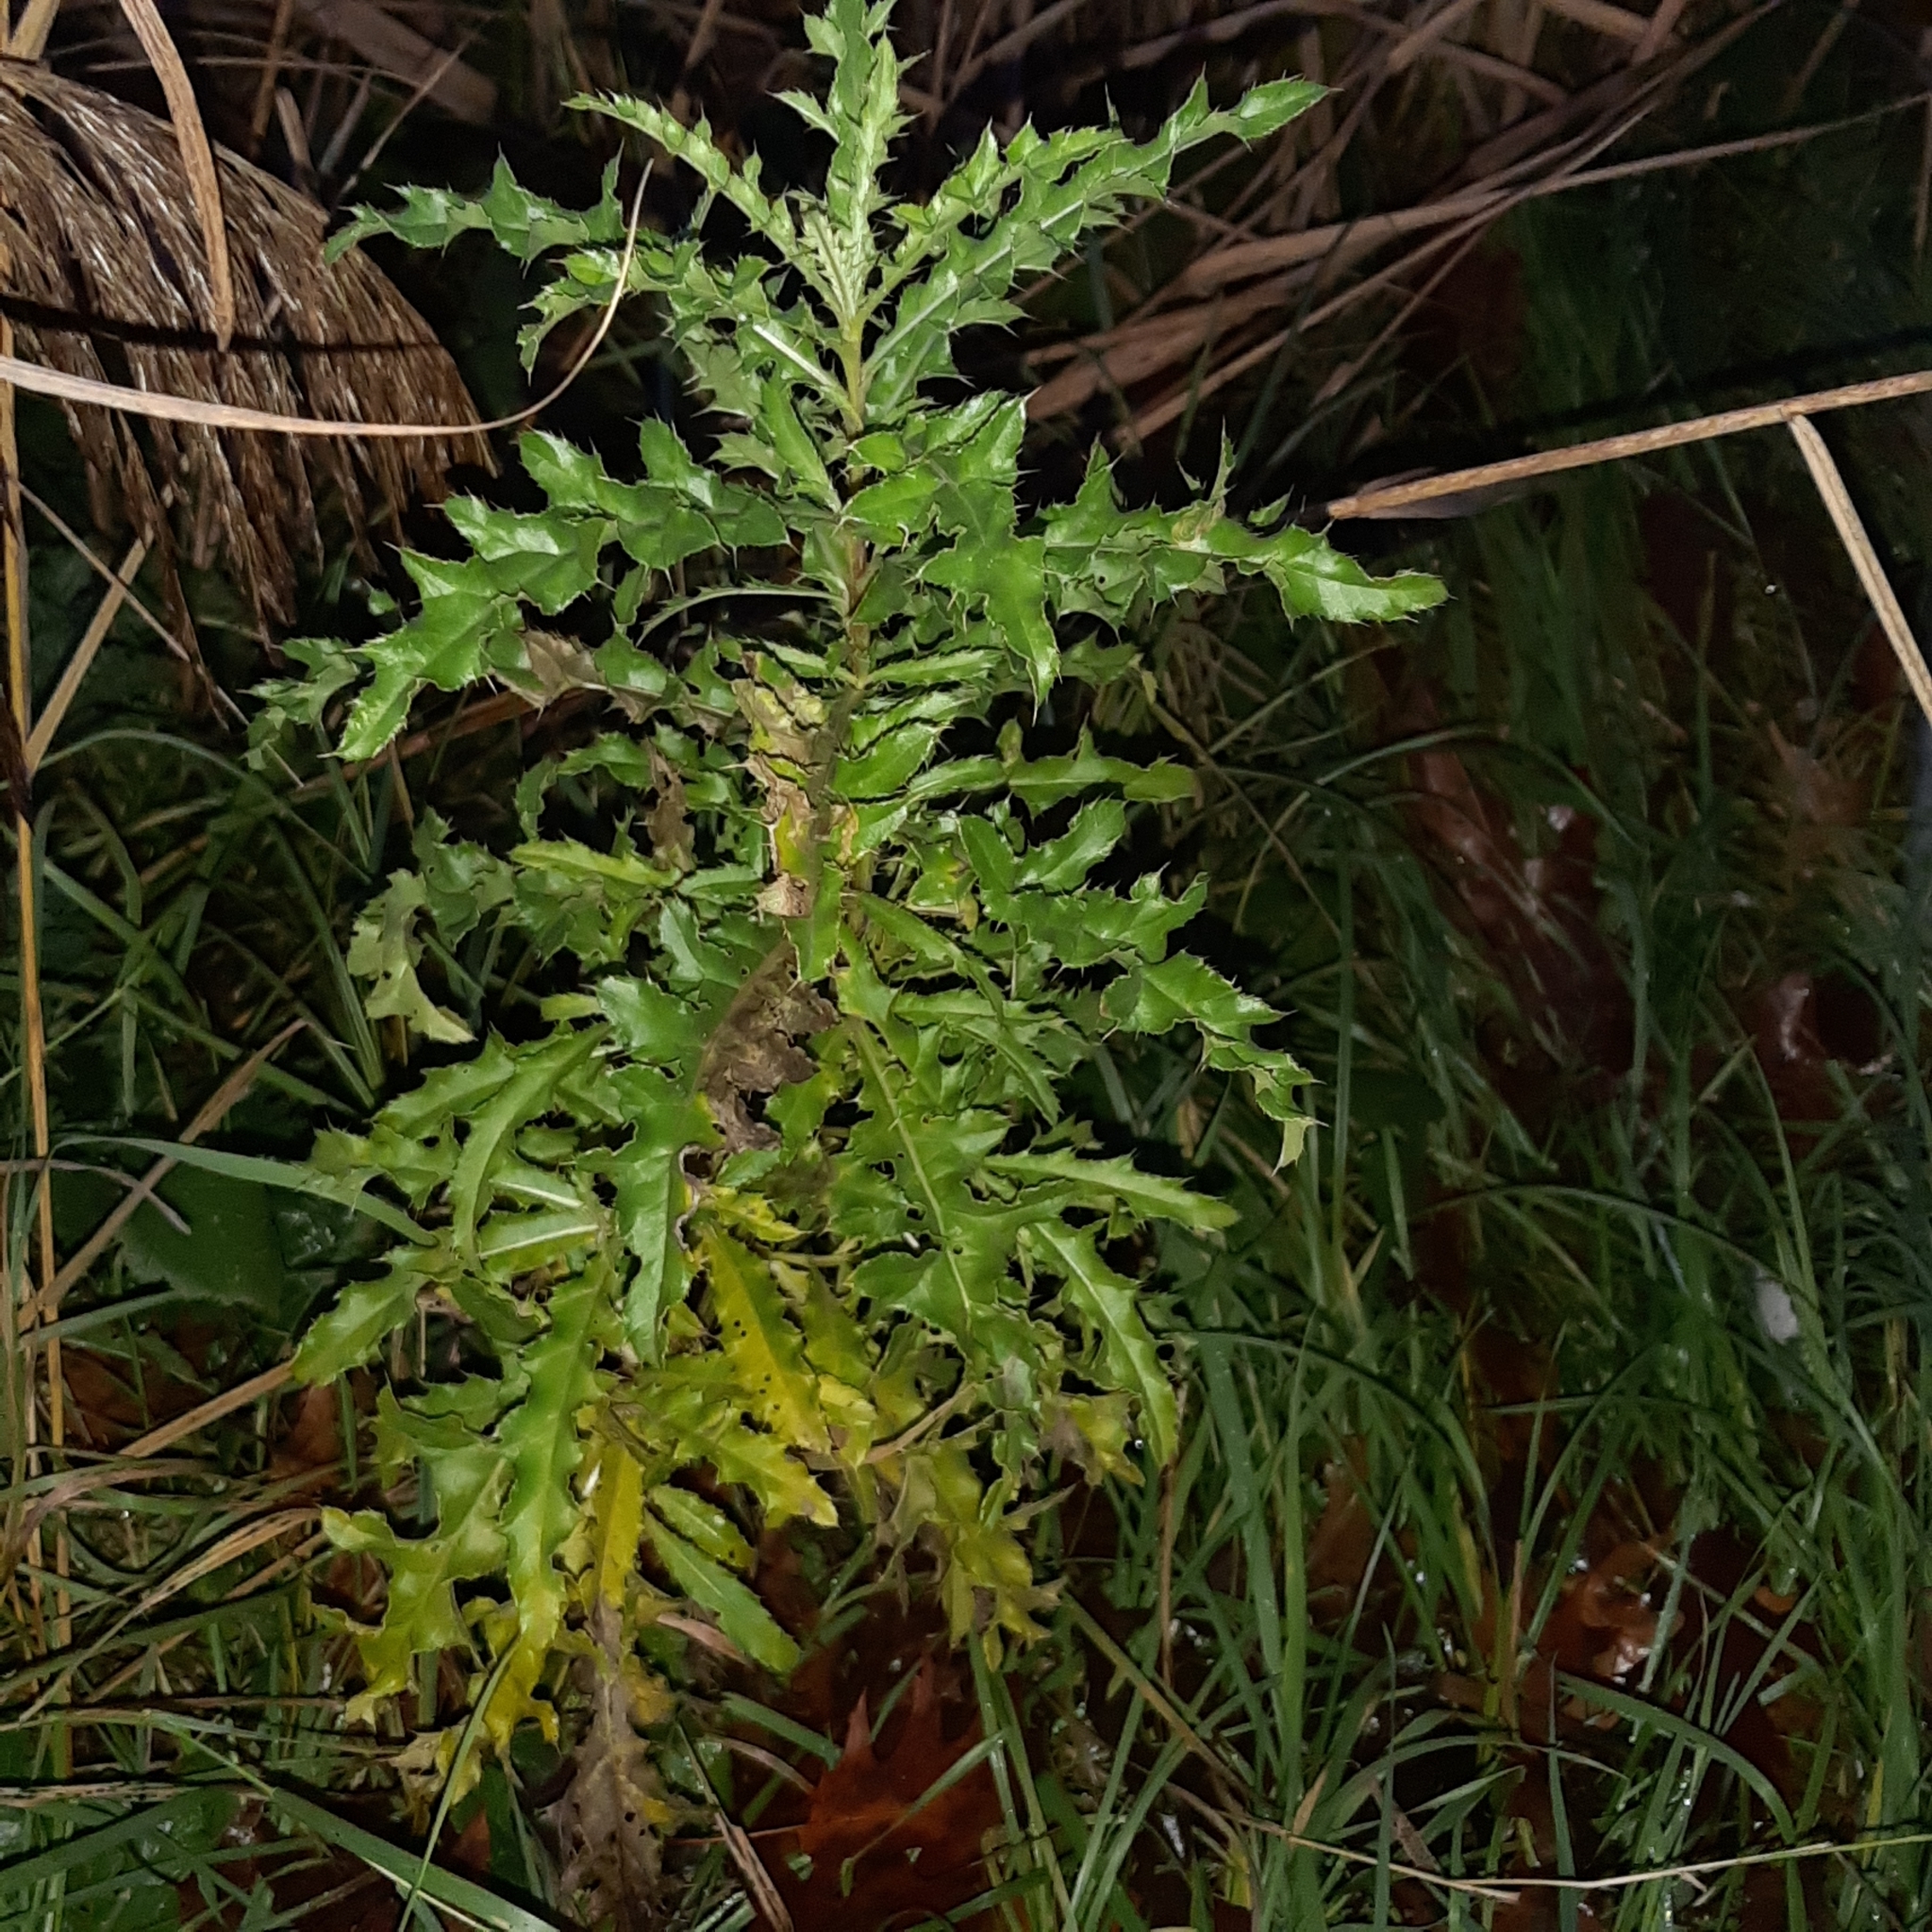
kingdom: Plantae
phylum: Tracheophyta
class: Magnoliopsida
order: Asterales
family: Asteraceae
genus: Cirsium
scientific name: Cirsium arvense
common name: Creeping thistle
